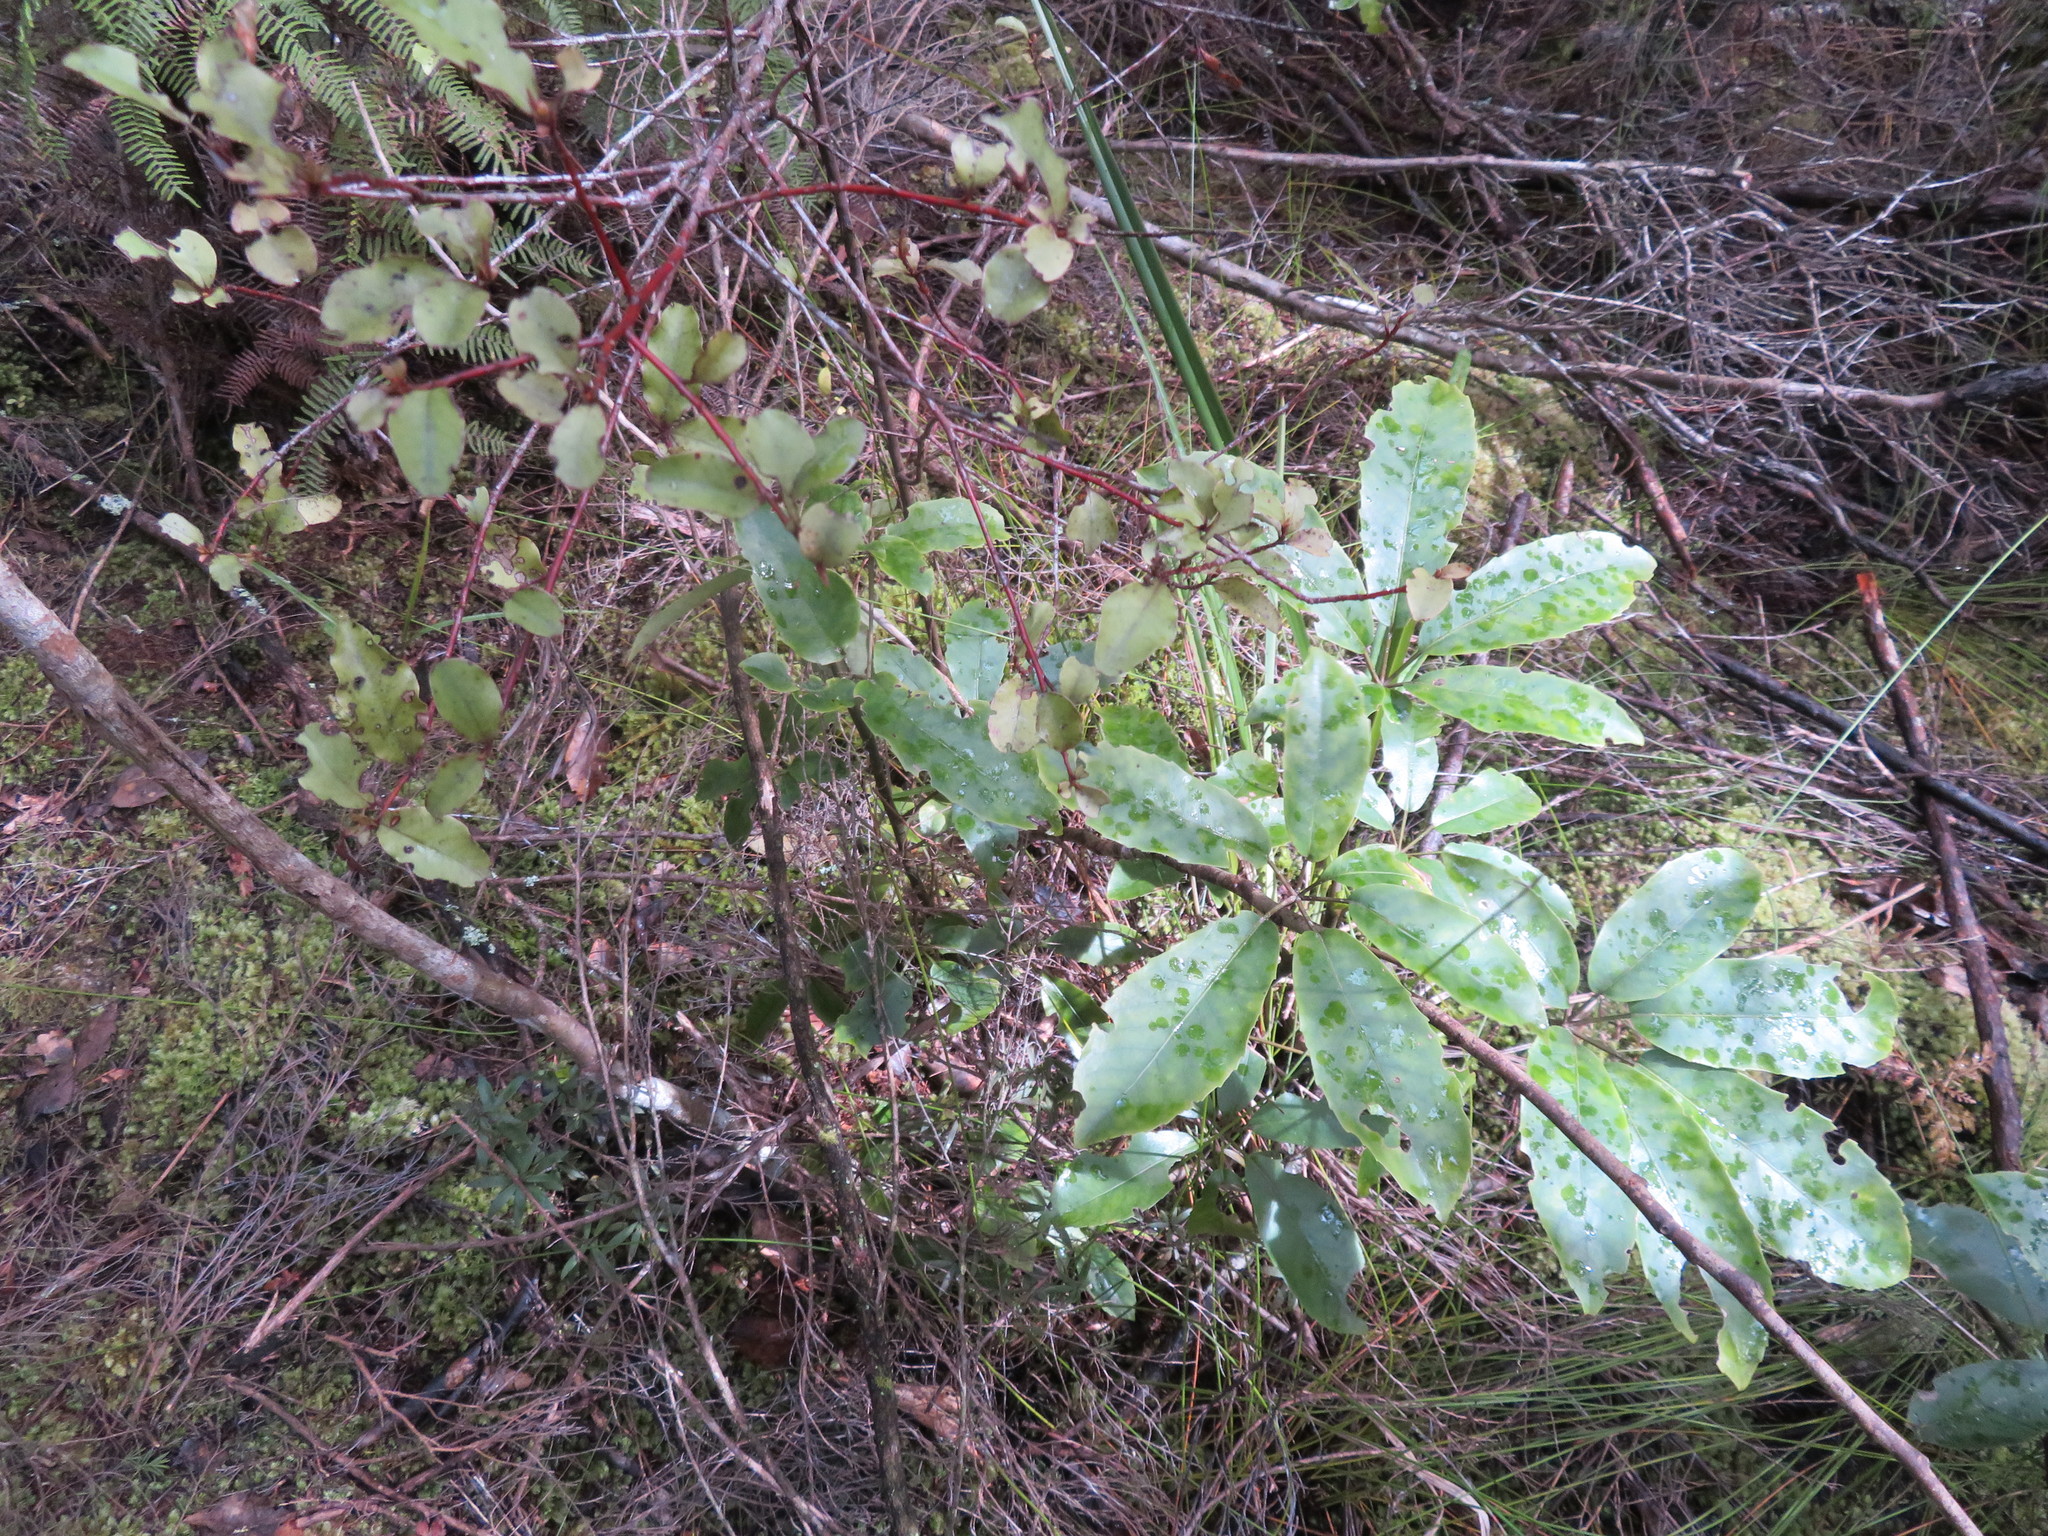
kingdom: Plantae
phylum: Tracheophyta
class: Magnoliopsida
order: Apiales
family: Araliaceae
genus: Neopanax
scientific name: Neopanax arboreus
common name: Five-fingers
